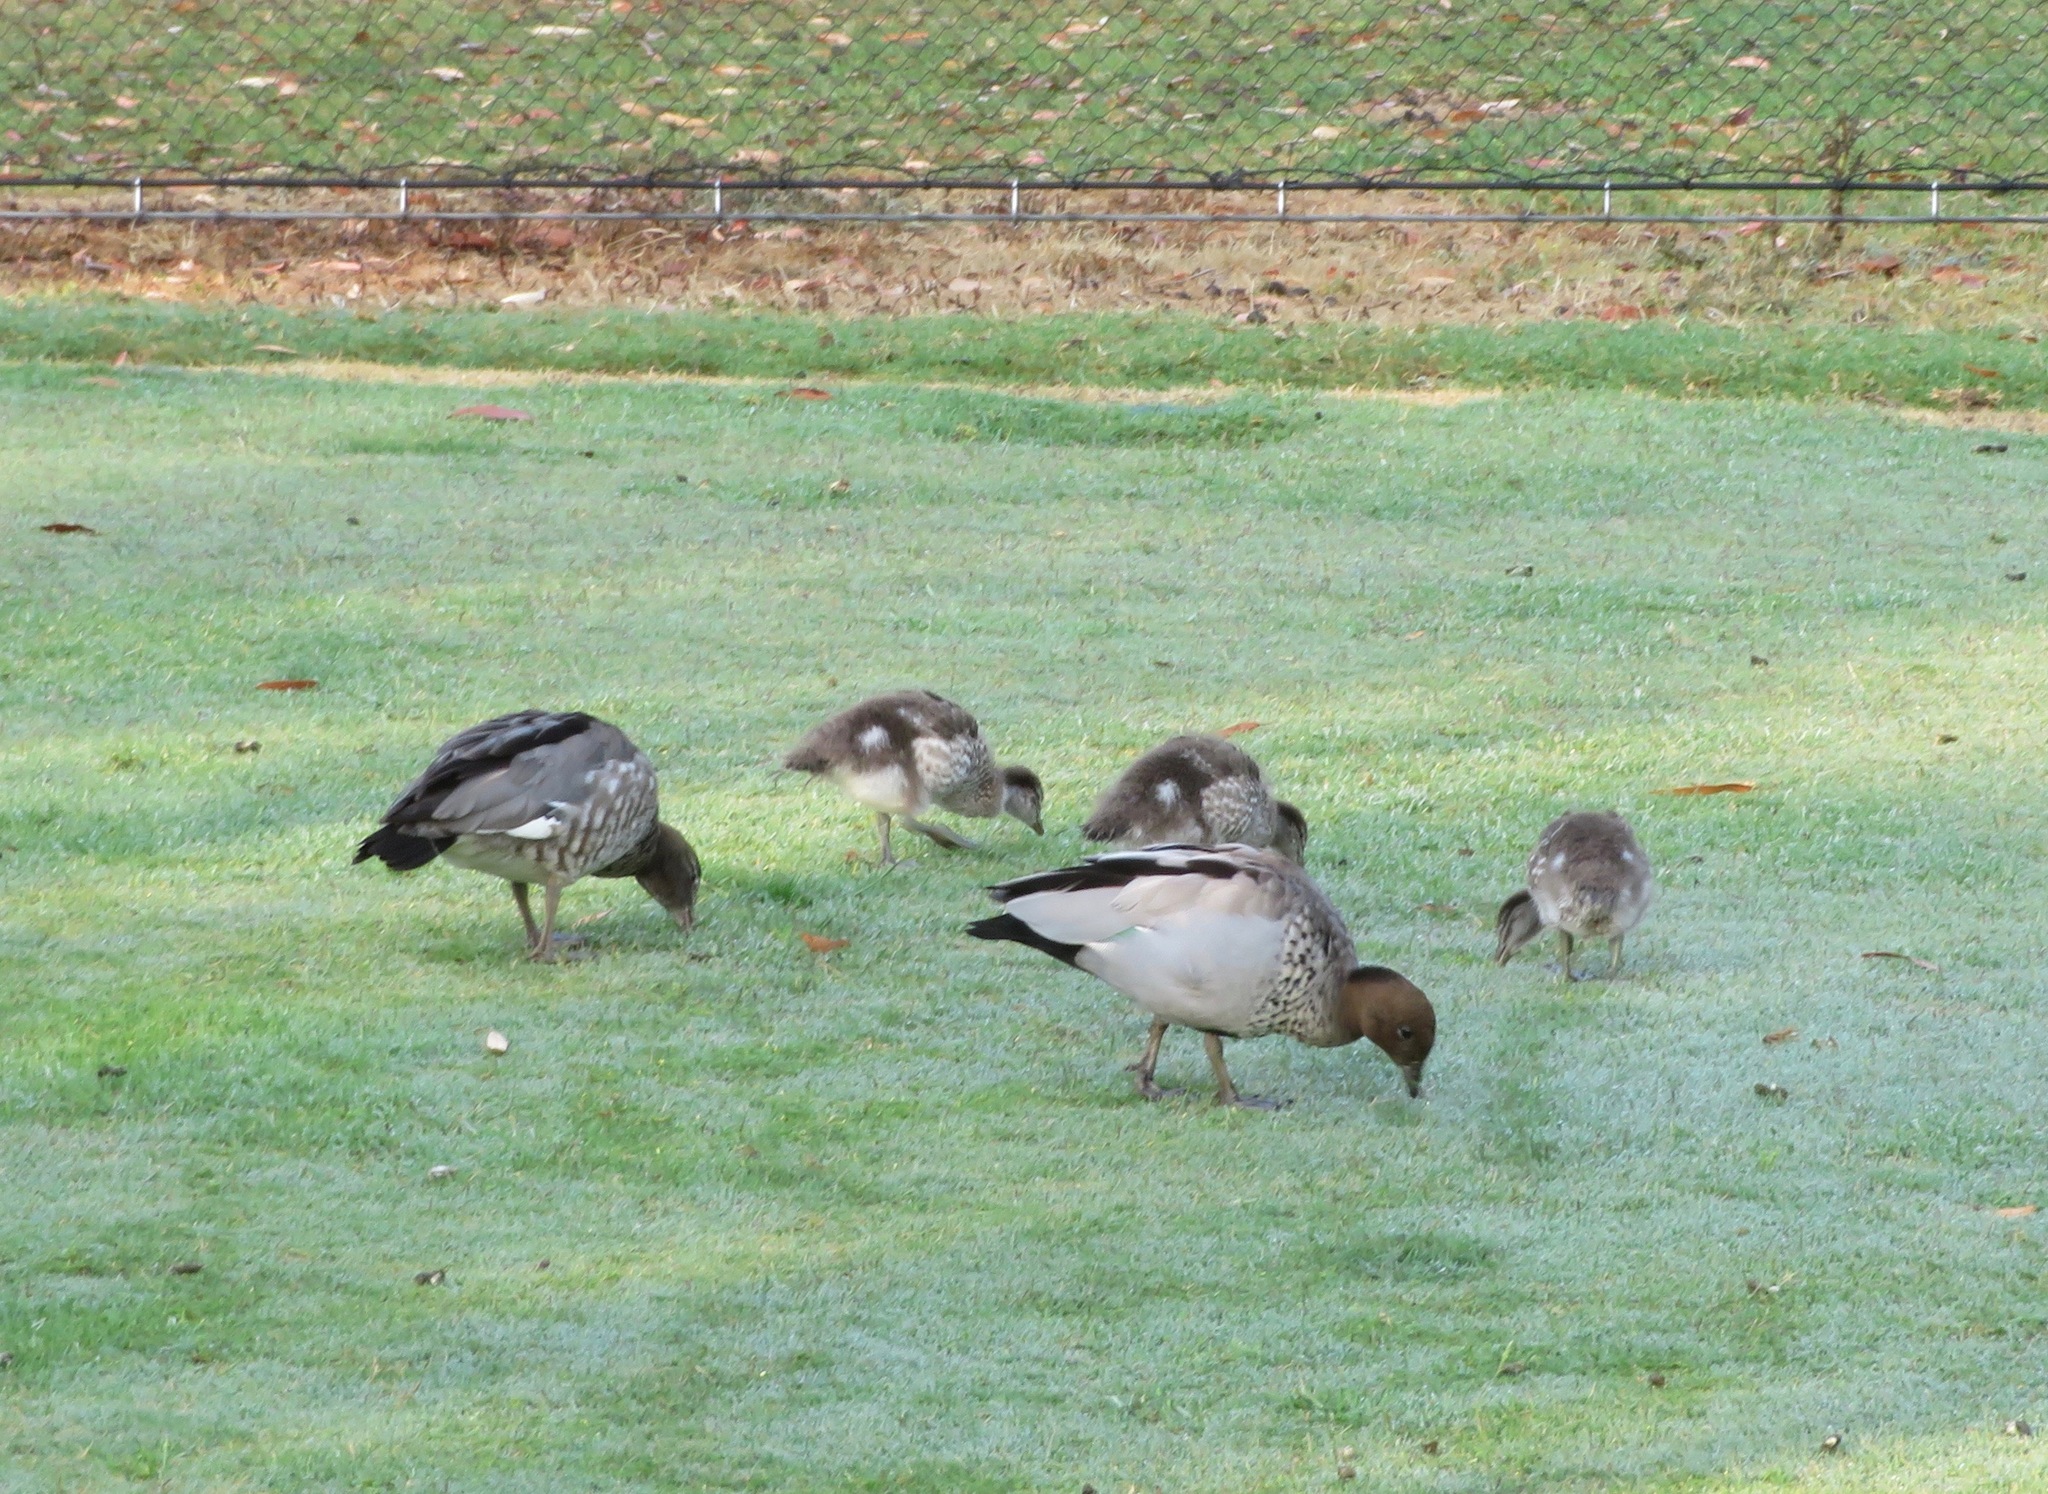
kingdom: Animalia
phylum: Chordata
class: Aves
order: Anseriformes
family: Anatidae
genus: Chenonetta
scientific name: Chenonetta jubata
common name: Maned duck
